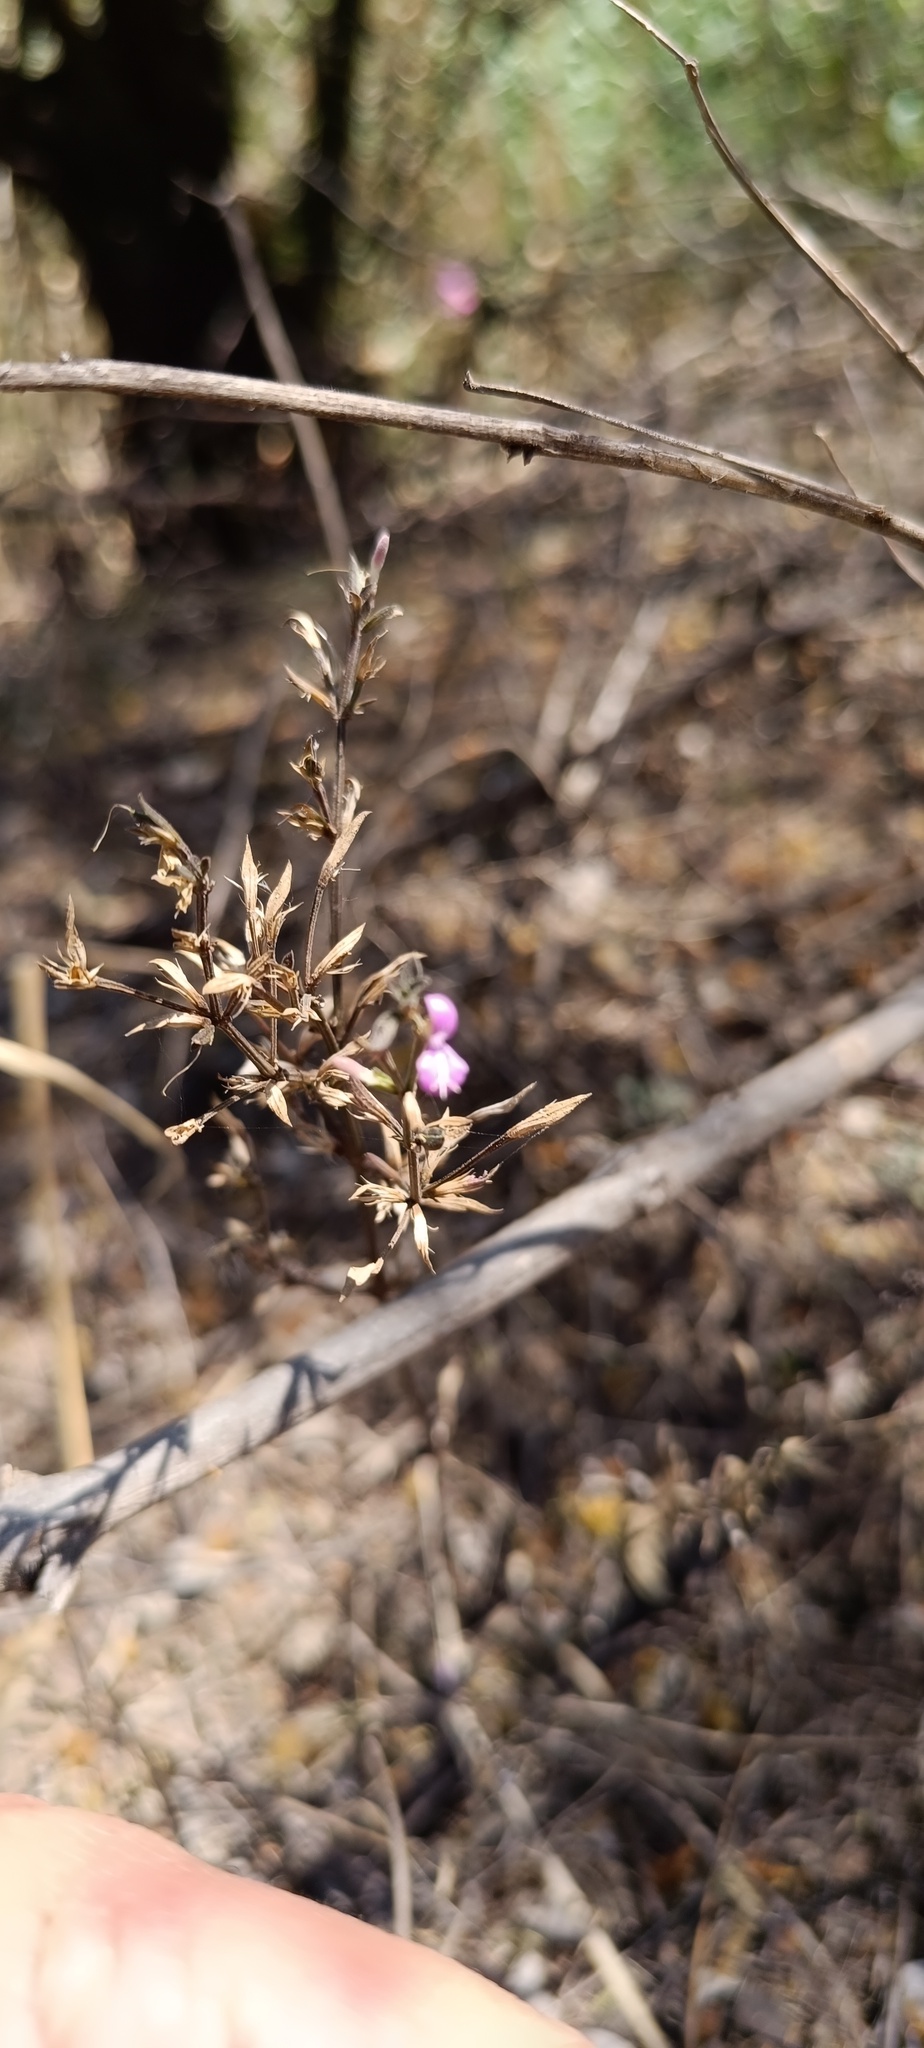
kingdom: Plantae
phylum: Tracheophyta
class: Magnoliopsida
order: Lamiales
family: Acanthaceae
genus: Dicliptera
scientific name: Dicliptera peduncularis
